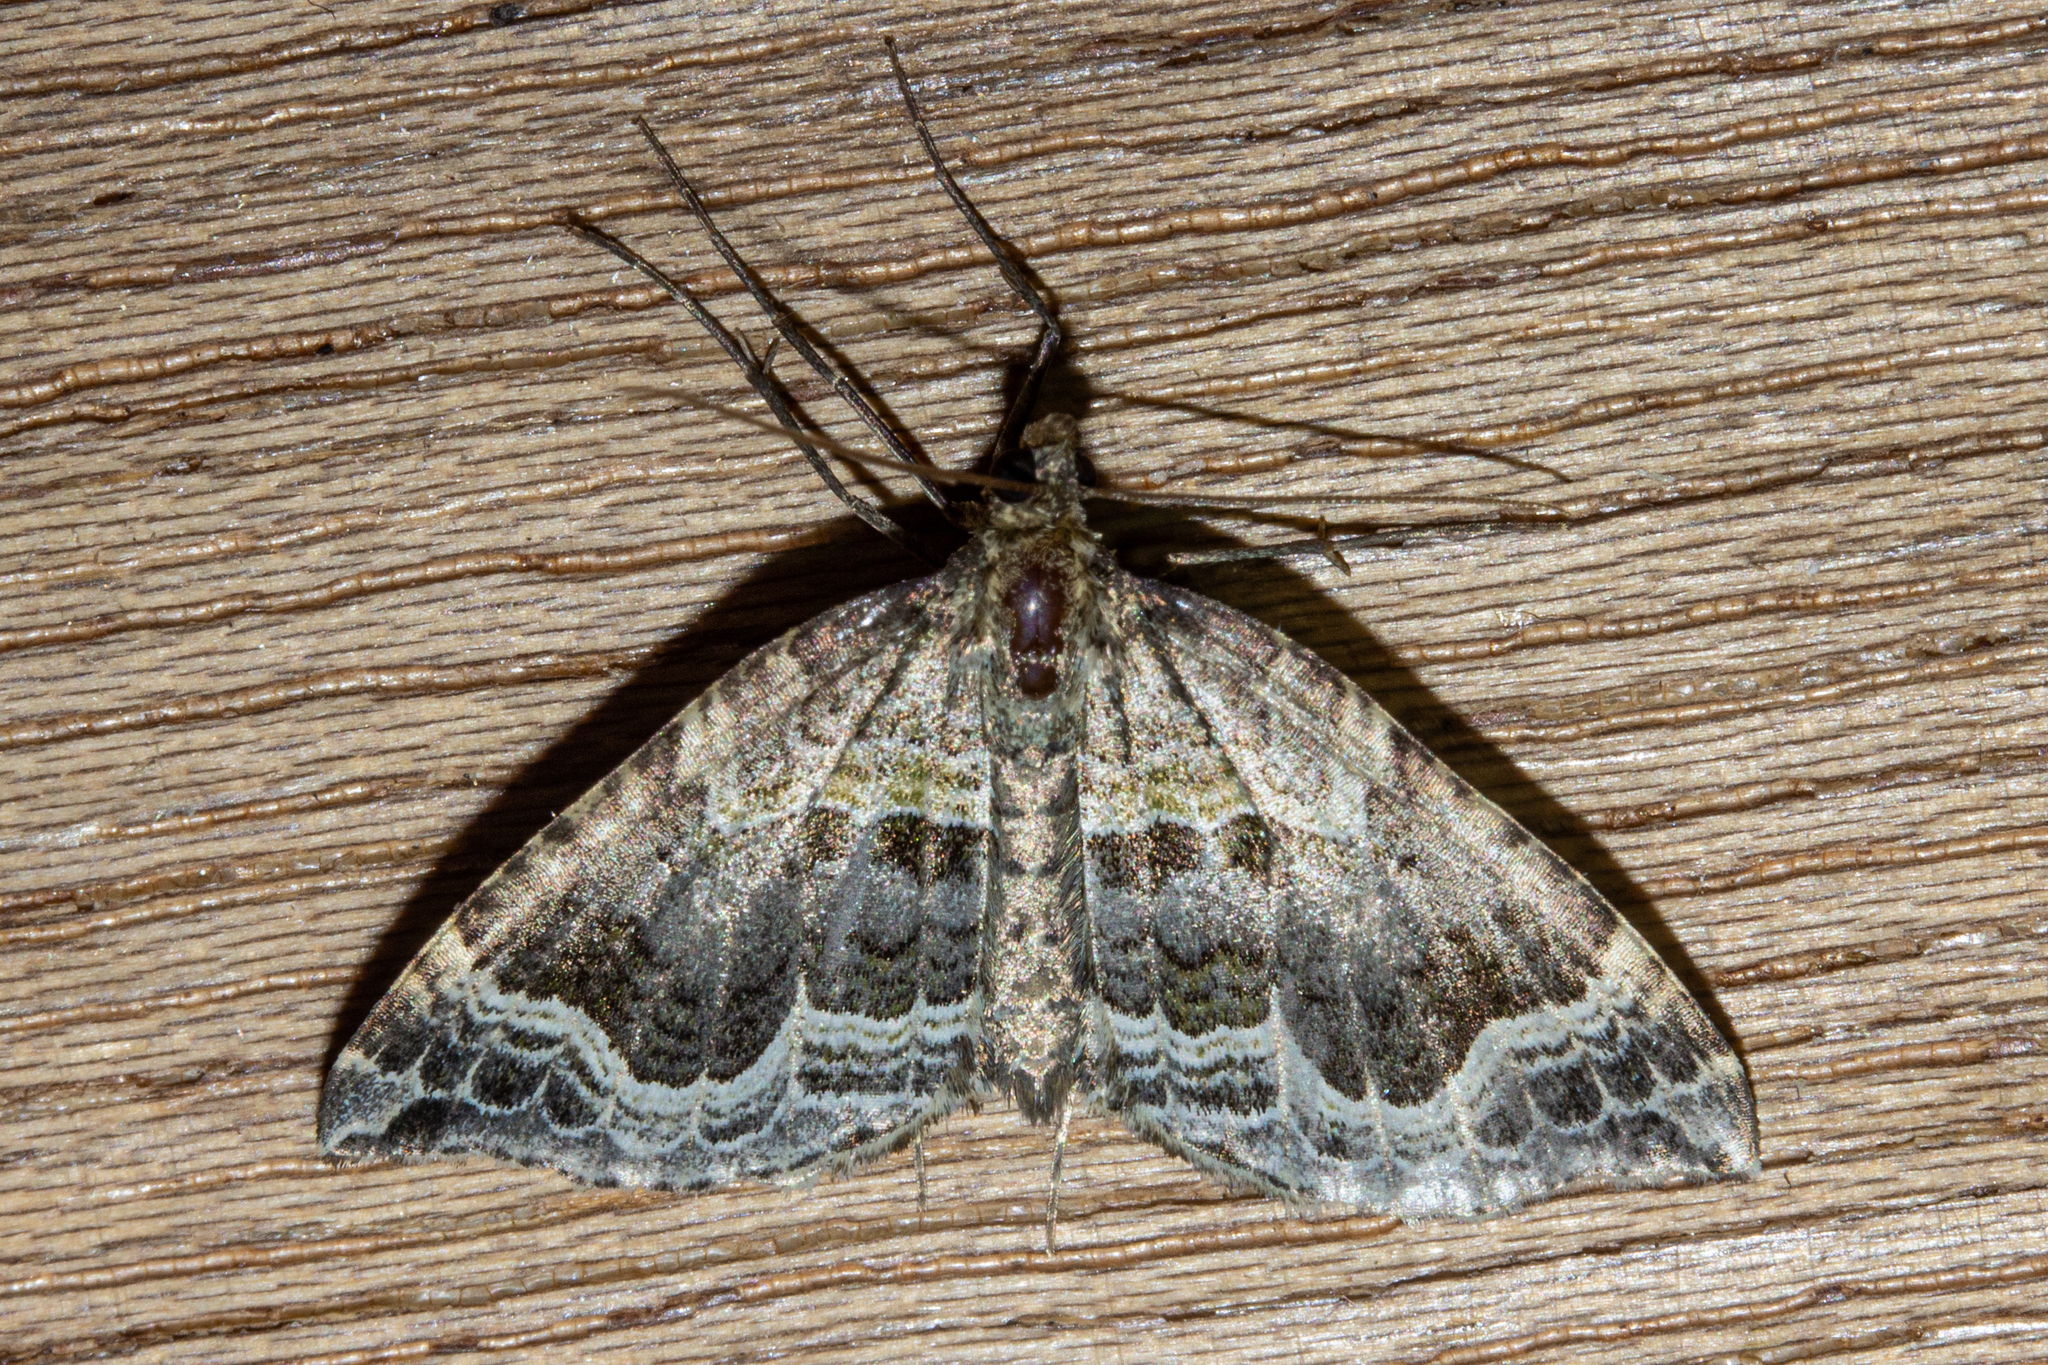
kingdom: Animalia
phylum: Arthropoda
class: Insecta
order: Lepidoptera
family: Geometridae
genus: Hydriomena
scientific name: Hydriomena rixata
